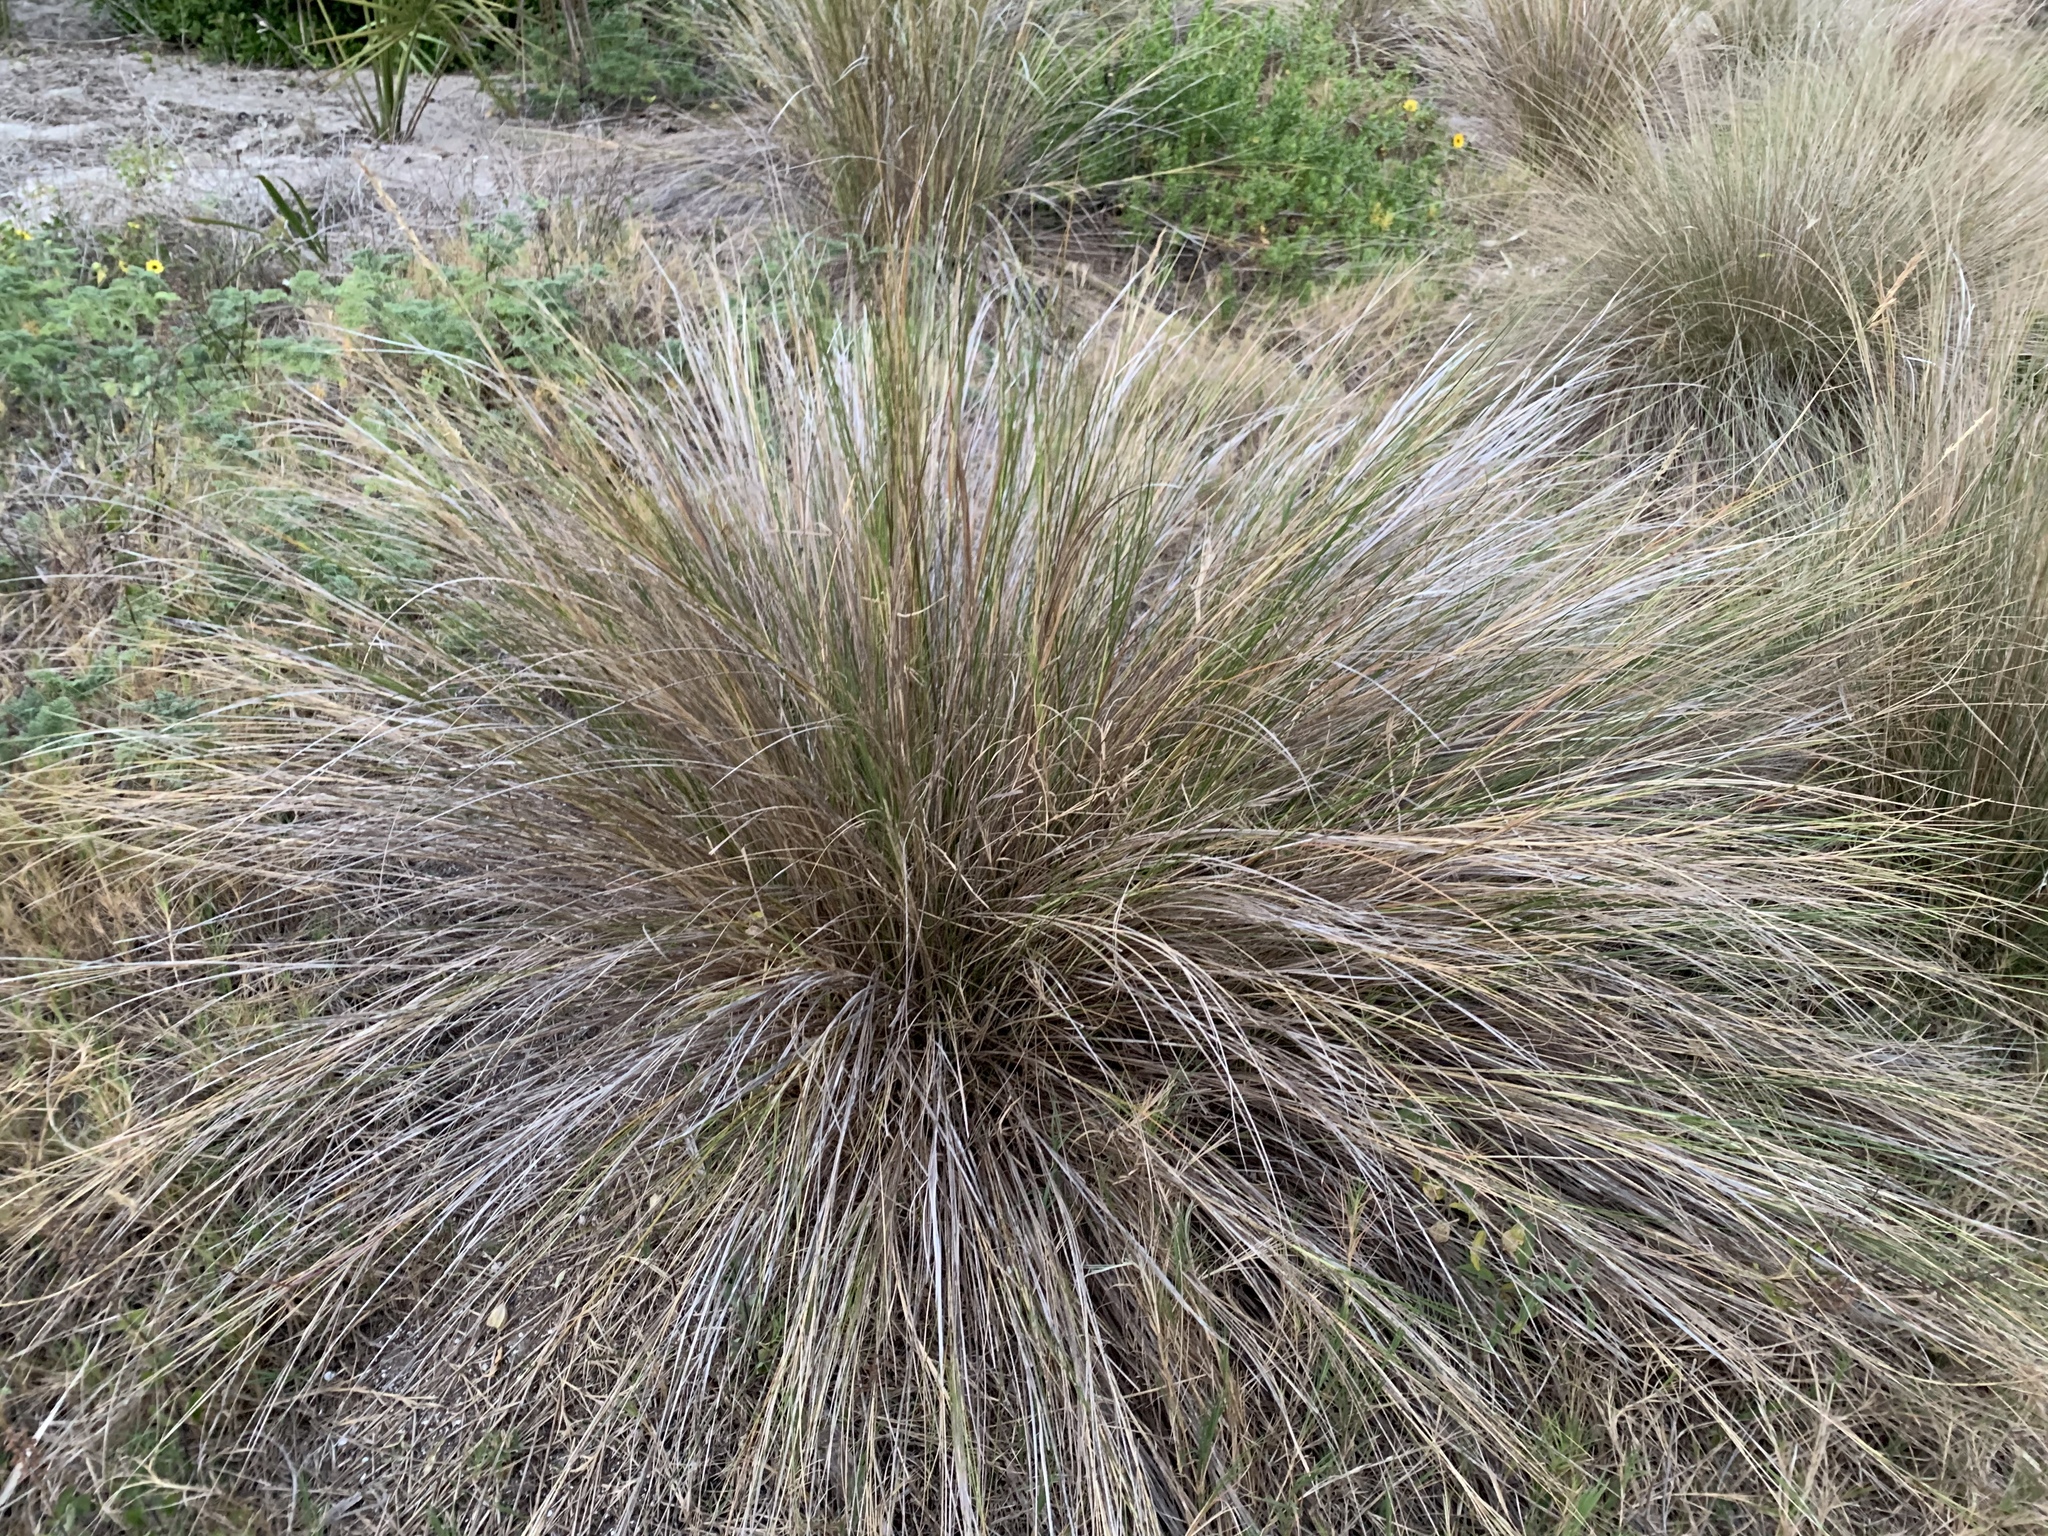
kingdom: Plantae
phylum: Tracheophyta
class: Liliopsida
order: Poales
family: Poaceae
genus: Sporobolus
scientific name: Sporobolus bakeri
